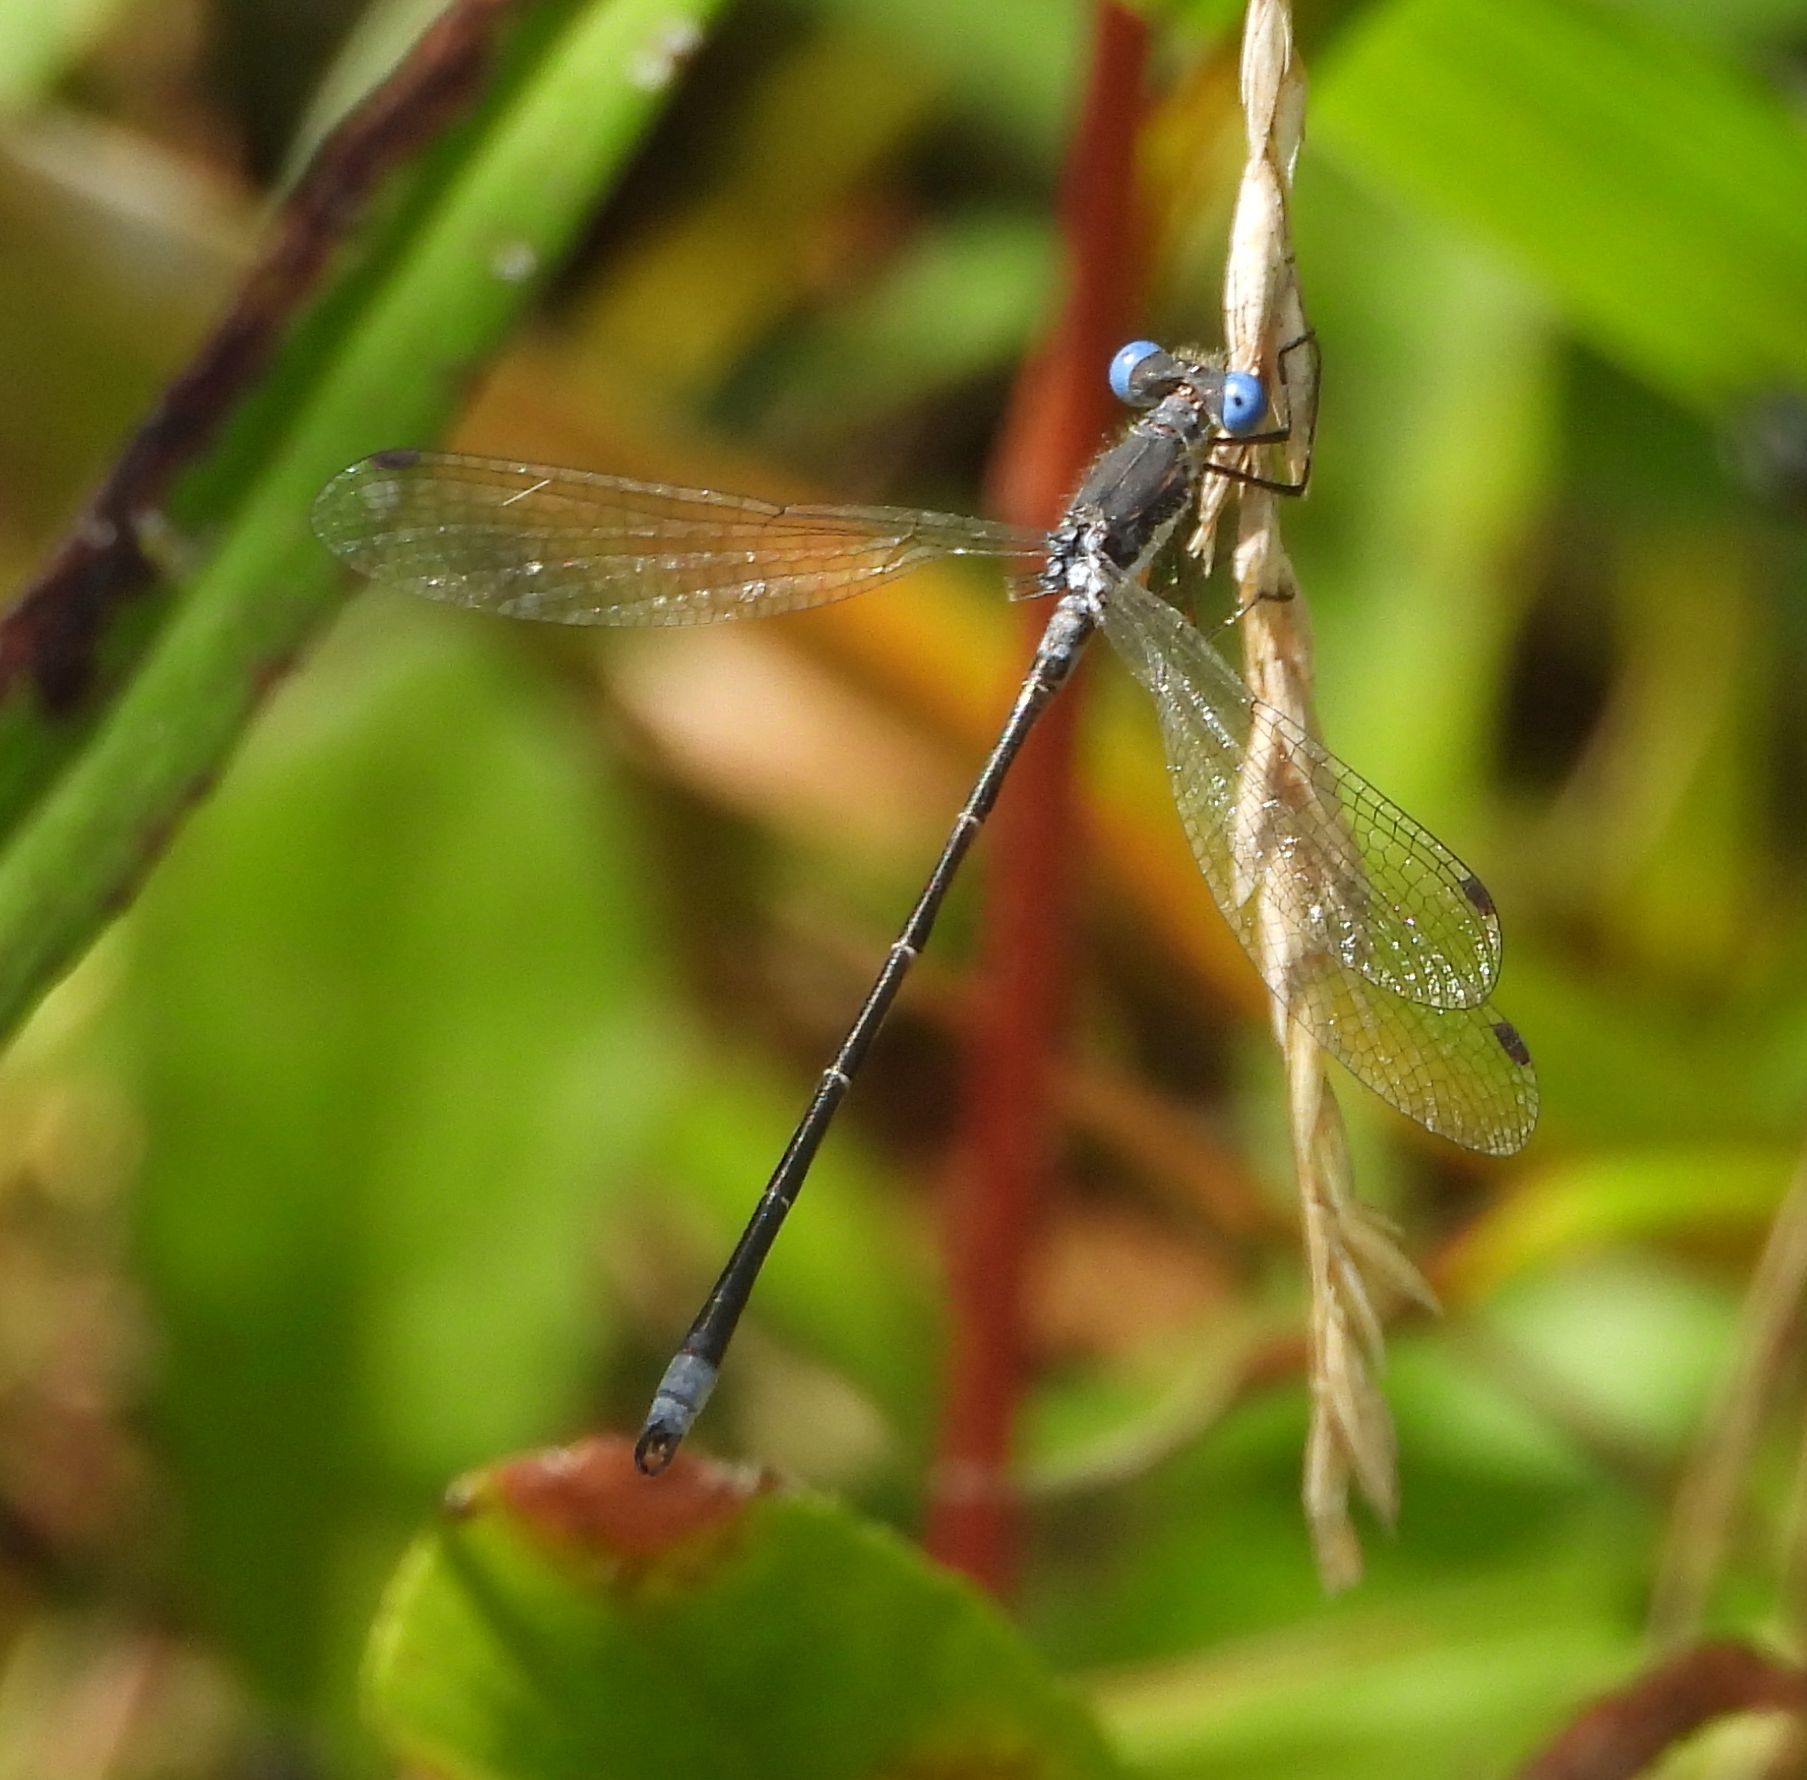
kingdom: Animalia
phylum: Arthropoda
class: Insecta
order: Odonata
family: Lestidae
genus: Lestes
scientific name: Lestes congener
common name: Spotted spreadwing
